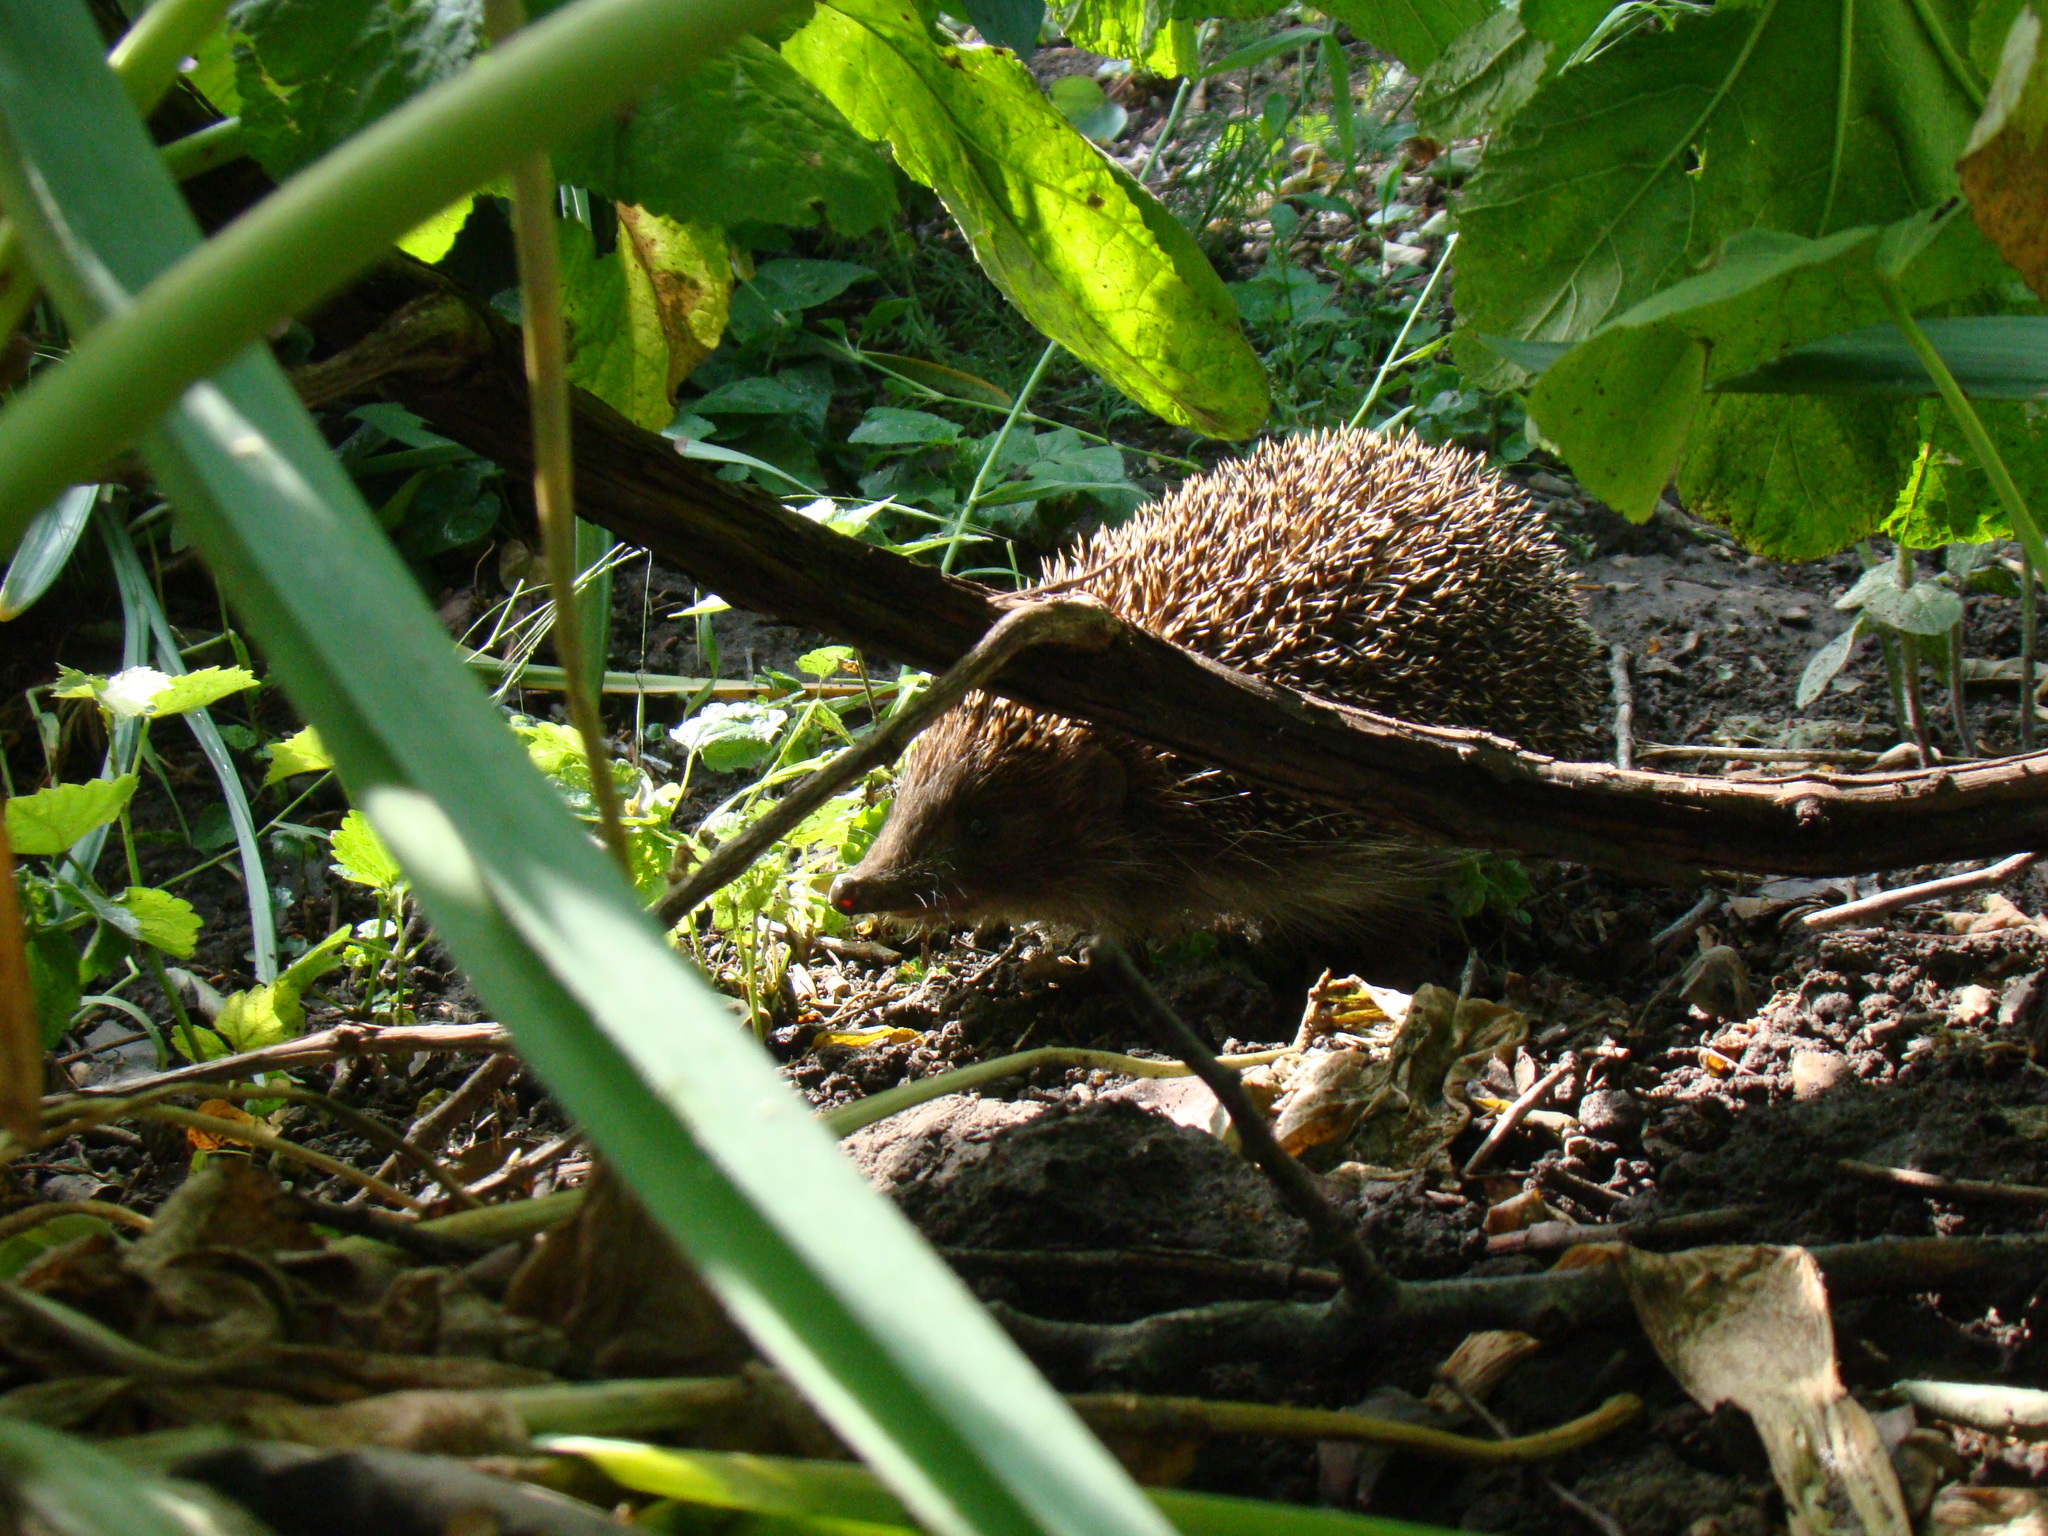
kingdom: Animalia
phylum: Chordata
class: Mammalia
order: Erinaceomorpha
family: Erinaceidae
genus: Erinaceus
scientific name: Erinaceus roumanicus
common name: Northern white-breasted hedgehog
